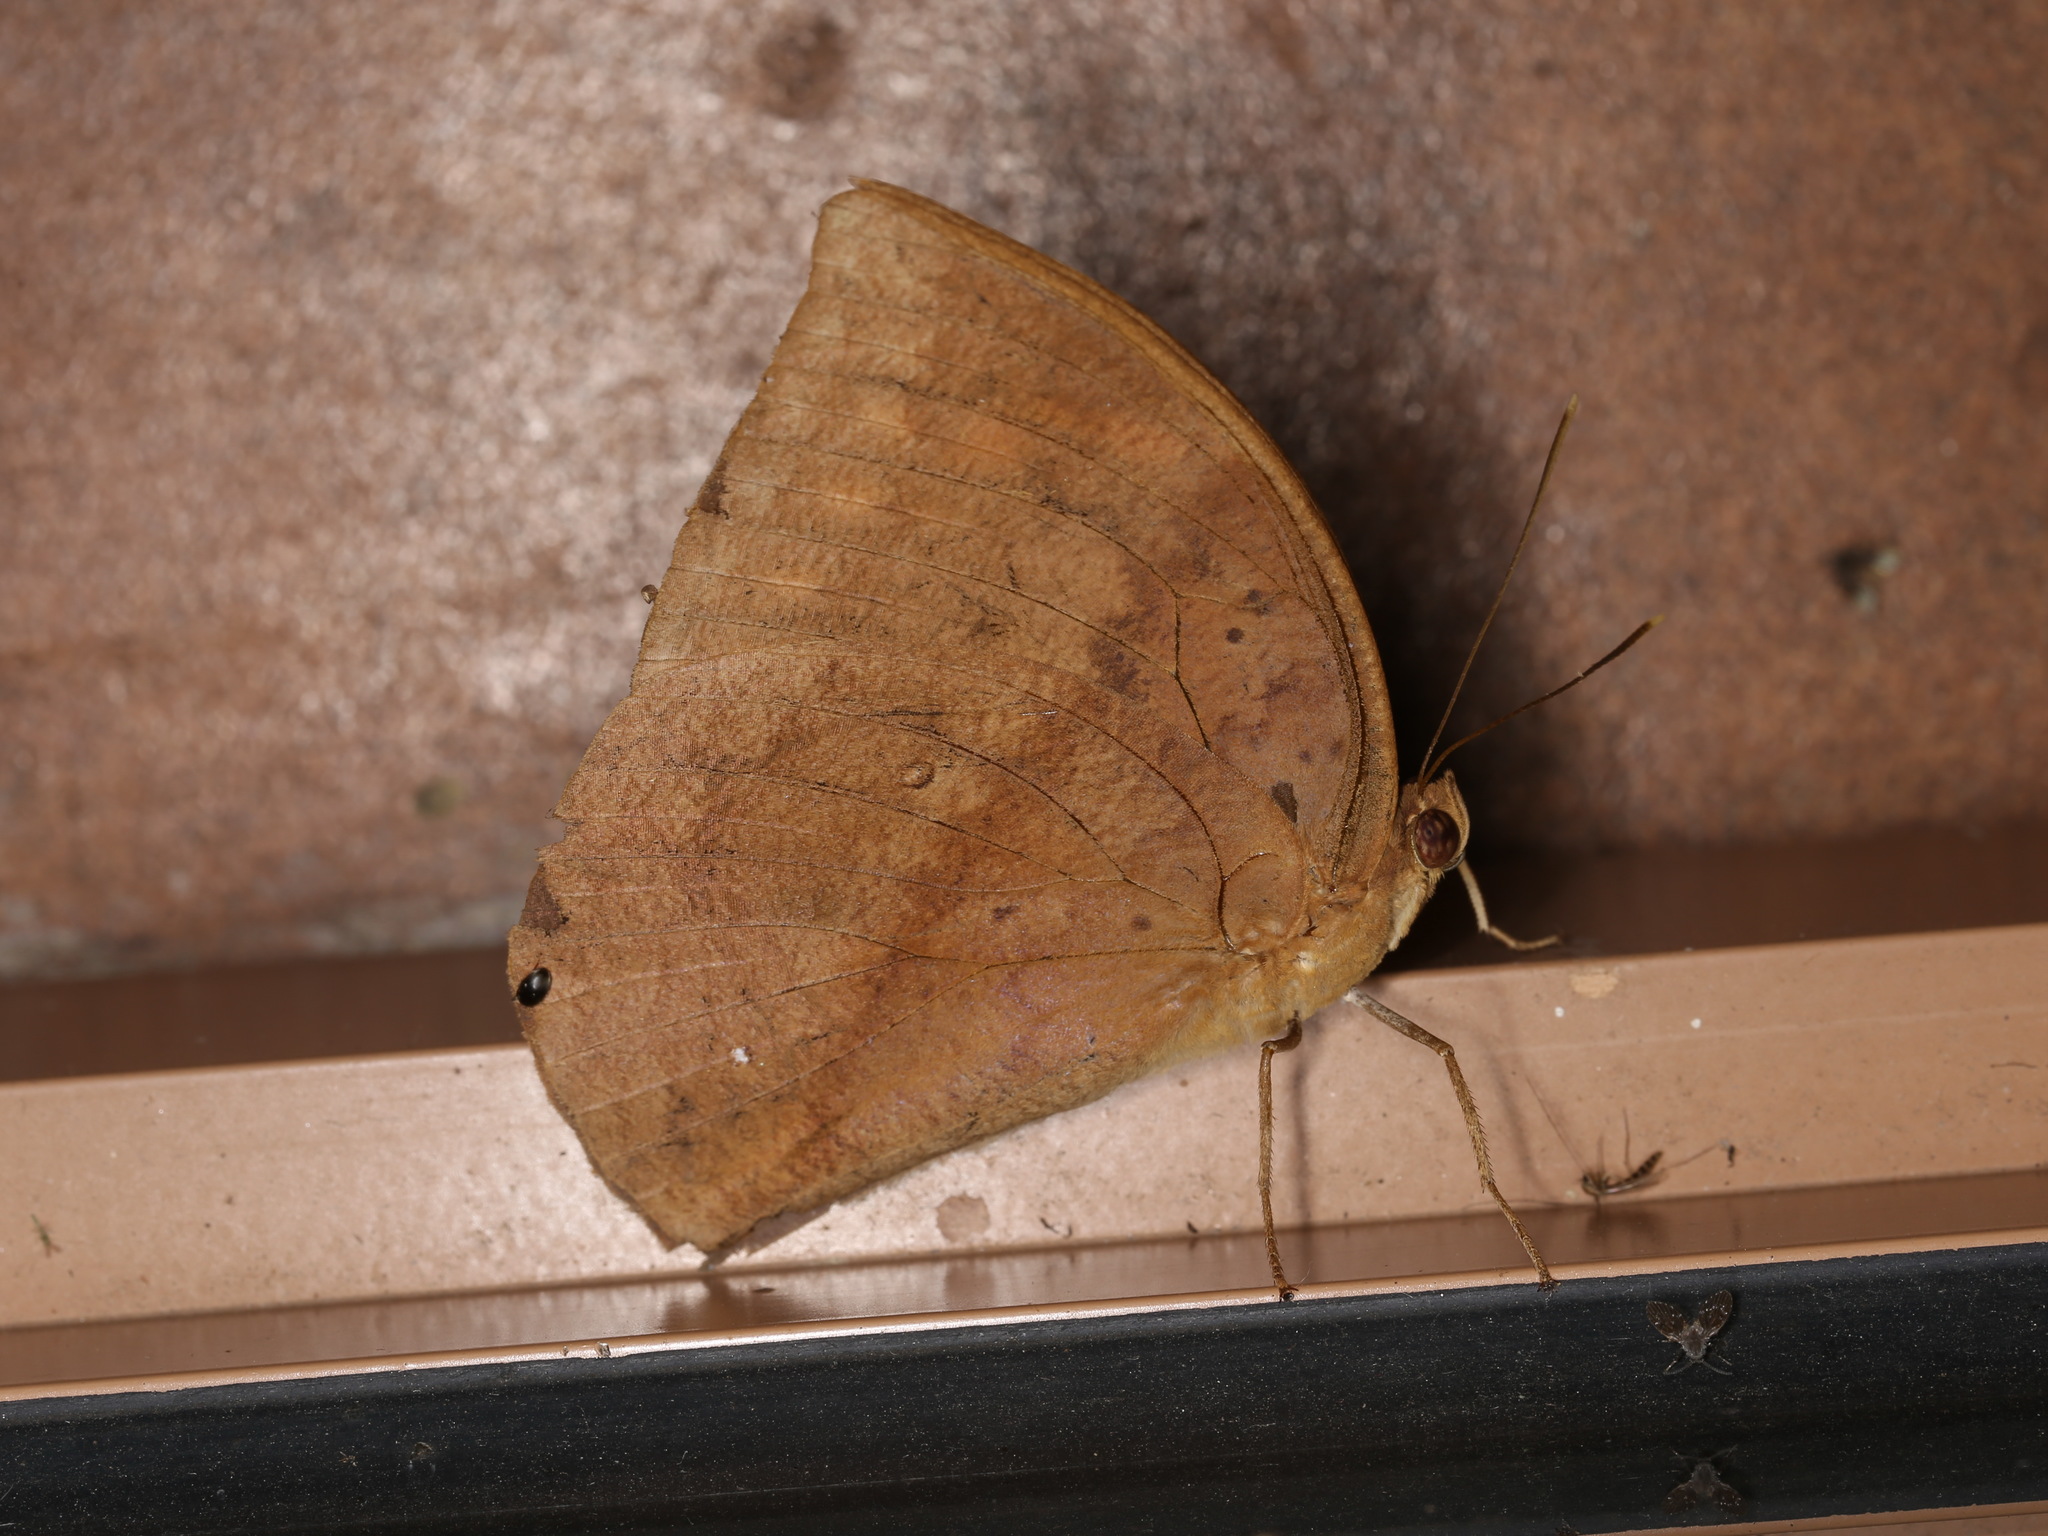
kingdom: Animalia
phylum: Arthropoda
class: Insecta
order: Lepidoptera
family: Nymphalidae
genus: Discophora
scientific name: Discophora timora
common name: Great duffer
